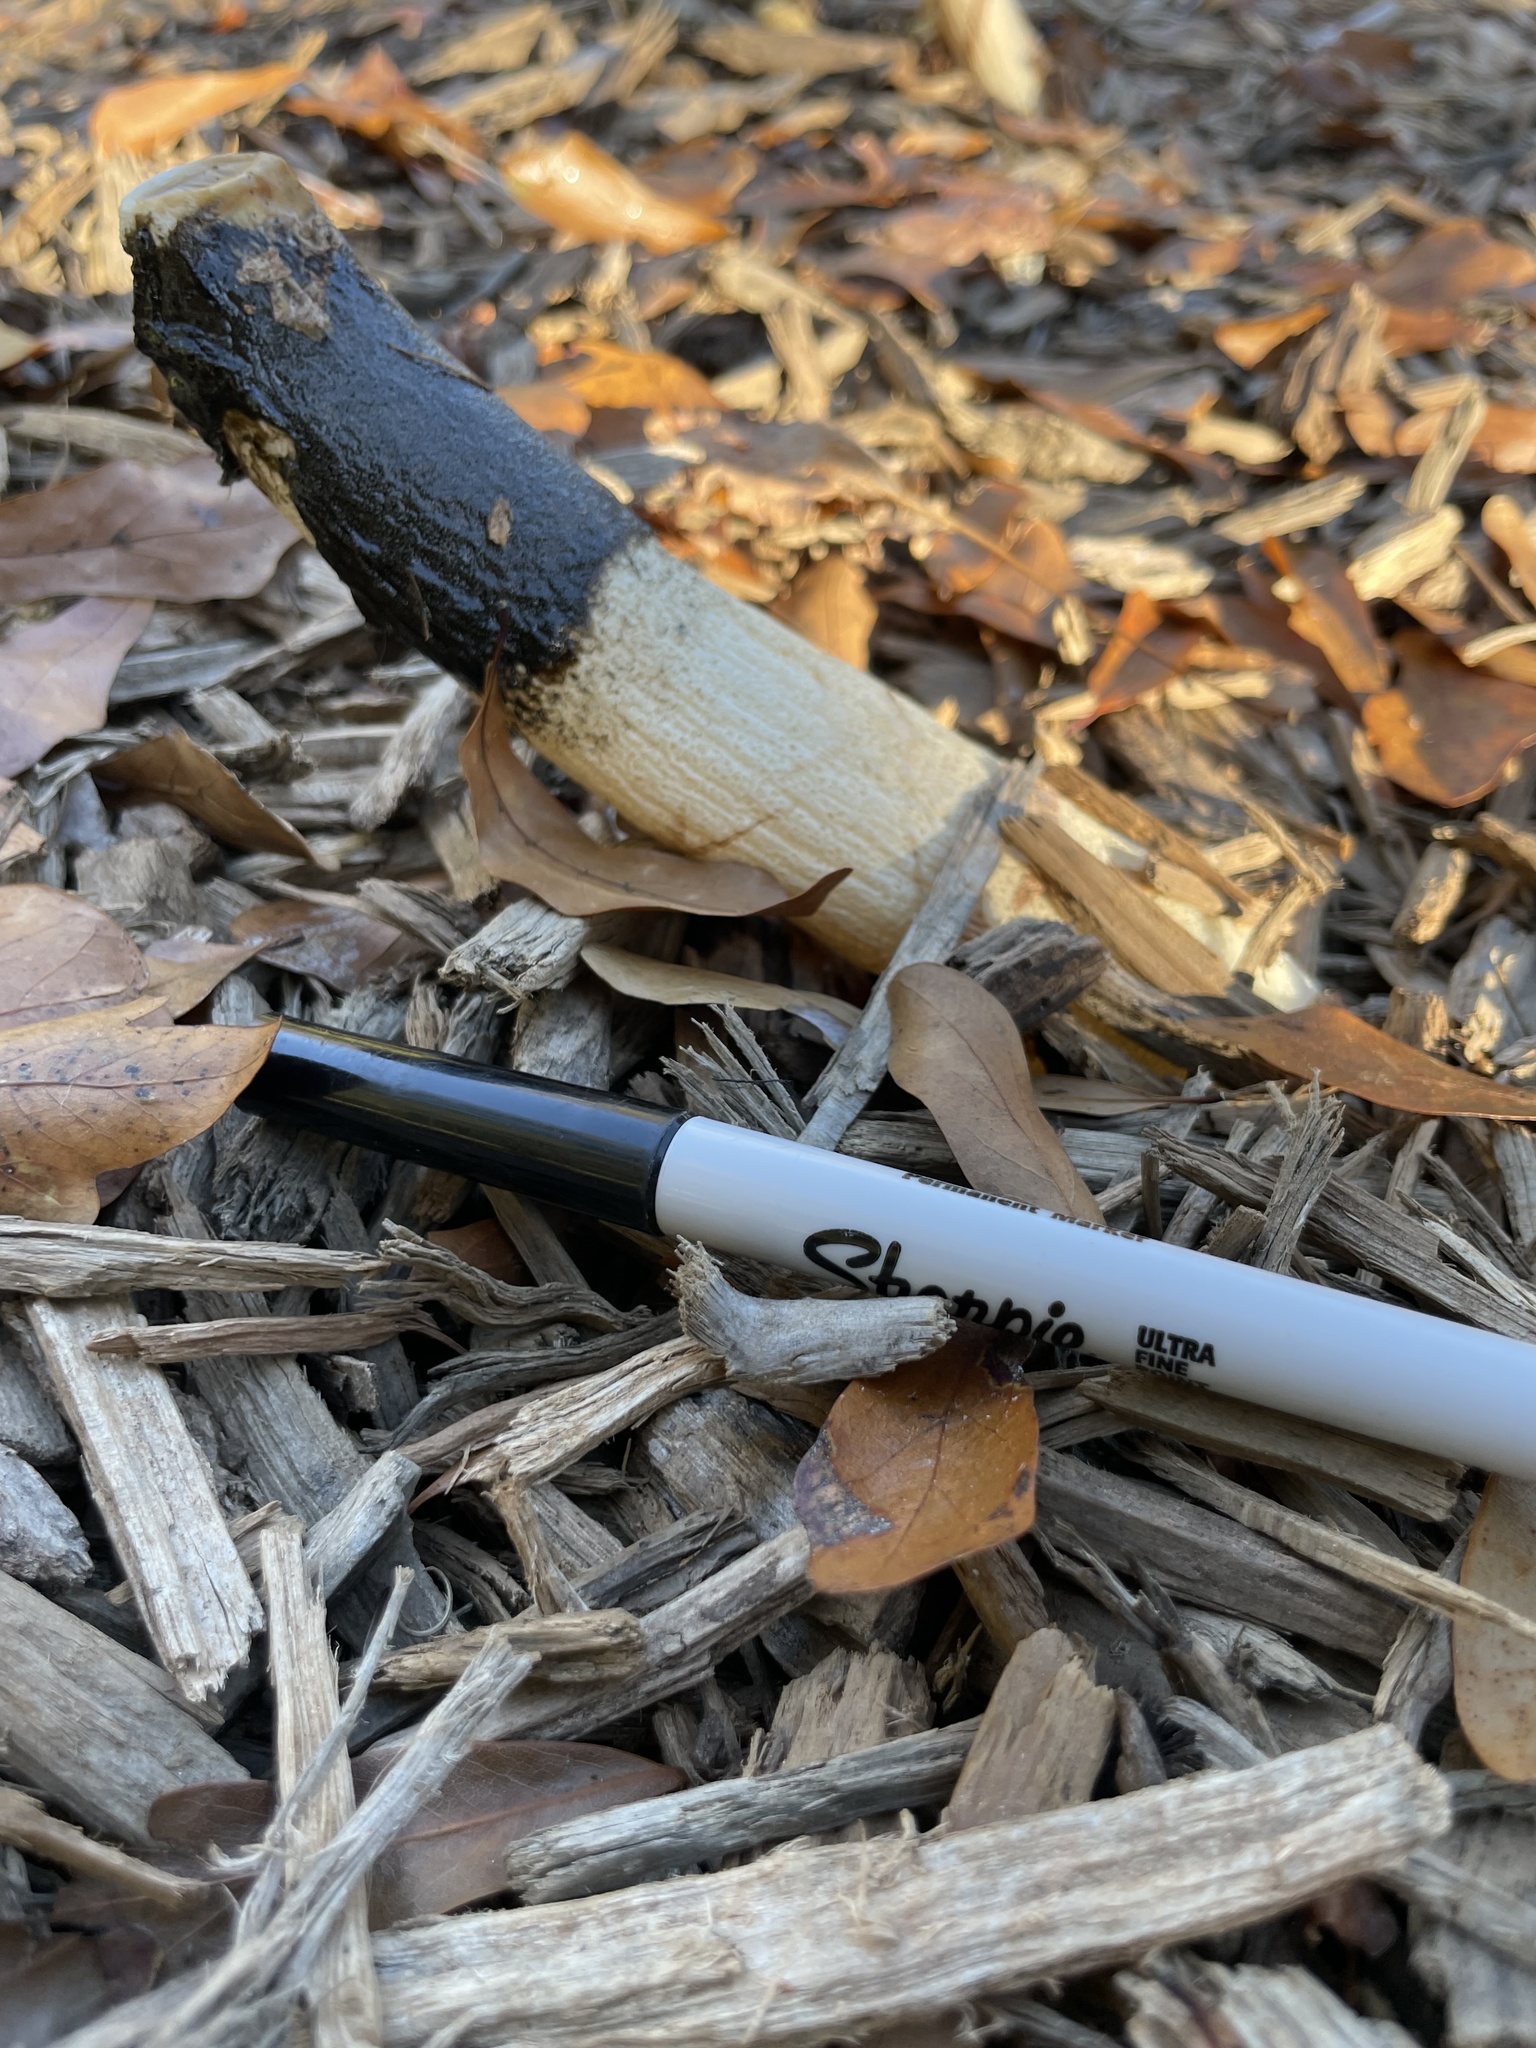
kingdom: Fungi
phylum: Basidiomycota
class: Agaricomycetes
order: Phallales
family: Phallaceae
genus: Phallus
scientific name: Phallus ravenelii
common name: Ravenel's stinkhorn
